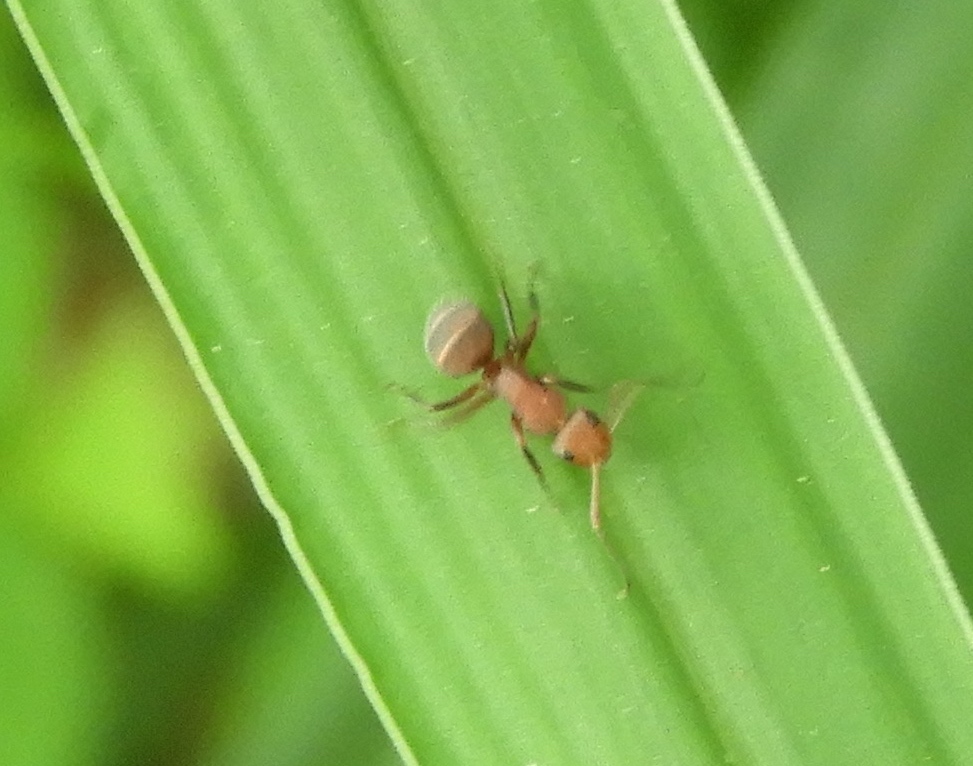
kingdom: Animalia
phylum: Arthropoda
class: Insecta
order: Hymenoptera
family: Formicidae
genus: Camponotus
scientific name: Camponotus rectangularis
